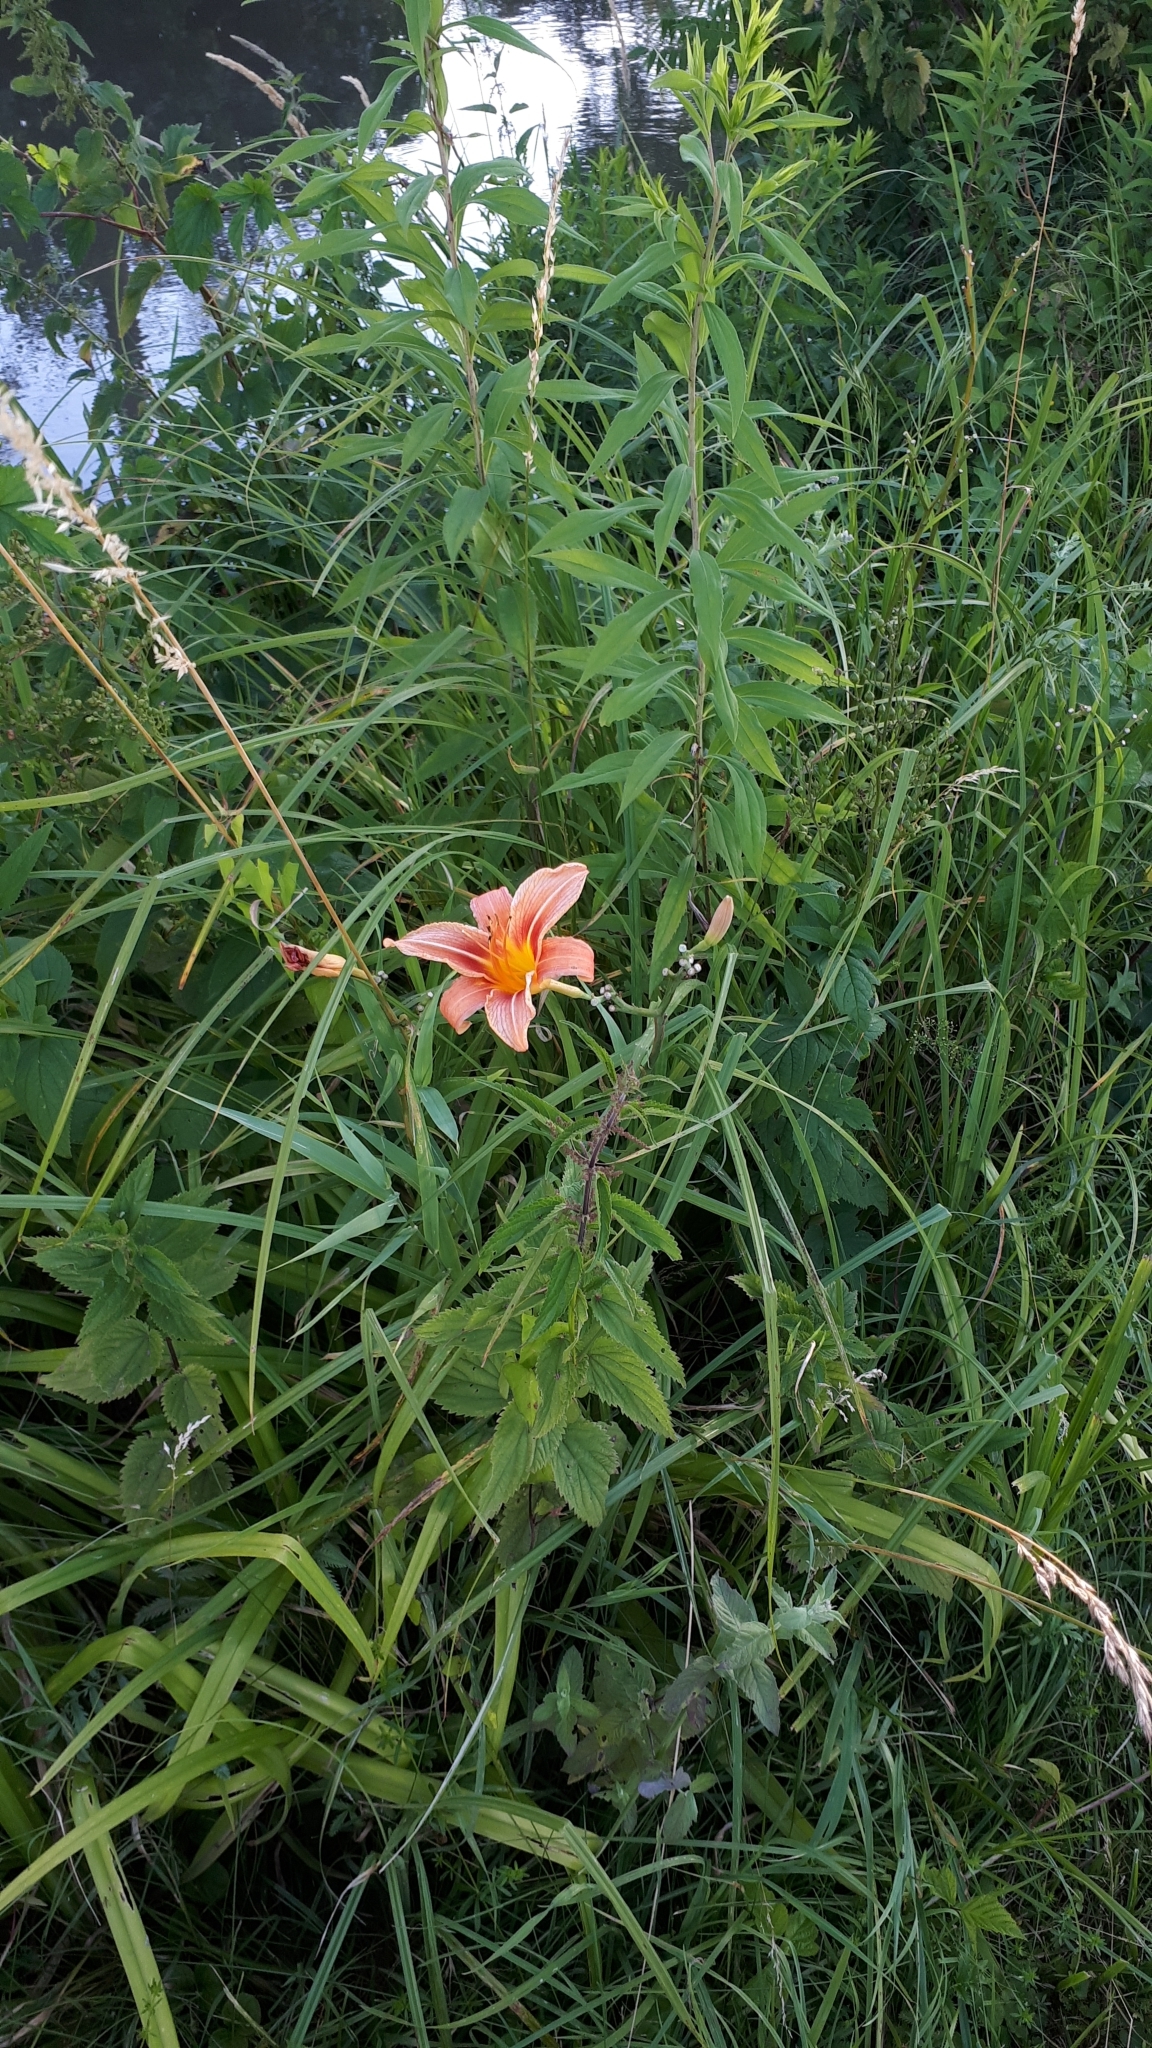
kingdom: Plantae
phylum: Tracheophyta
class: Liliopsida
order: Asparagales
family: Asphodelaceae
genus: Hemerocallis
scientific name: Hemerocallis fulva
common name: Orange day-lily
